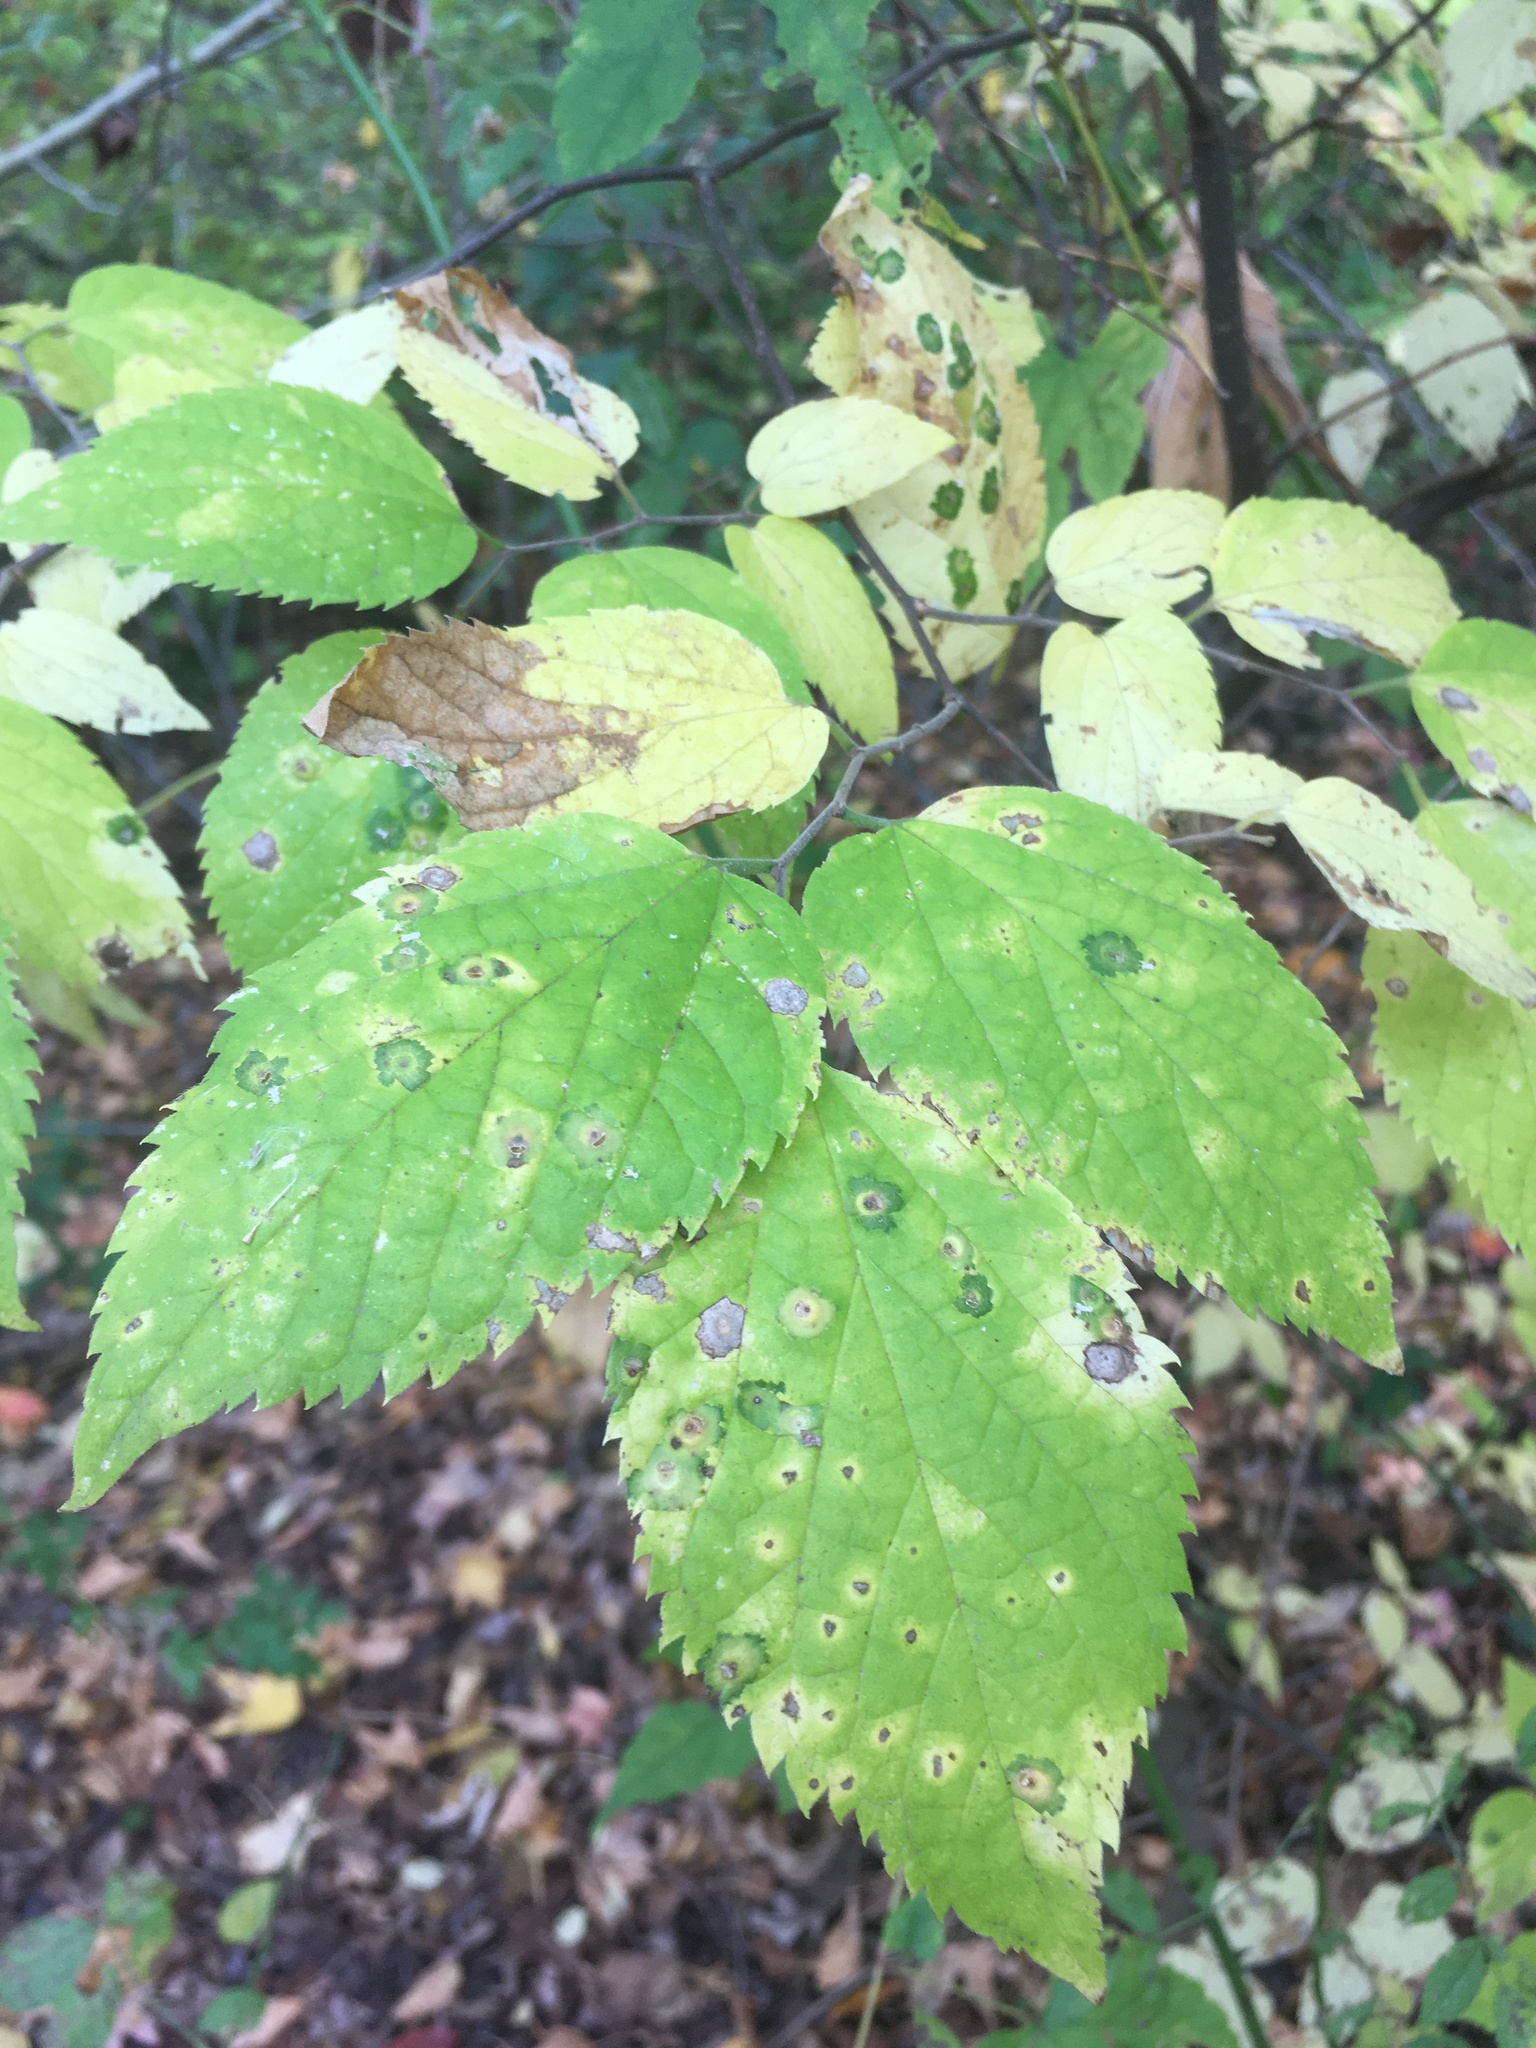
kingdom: Plantae
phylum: Tracheophyta
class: Magnoliopsida
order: Rosales
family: Cannabaceae
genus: Celtis
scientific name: Celtis occidentalis
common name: Common hackberry
